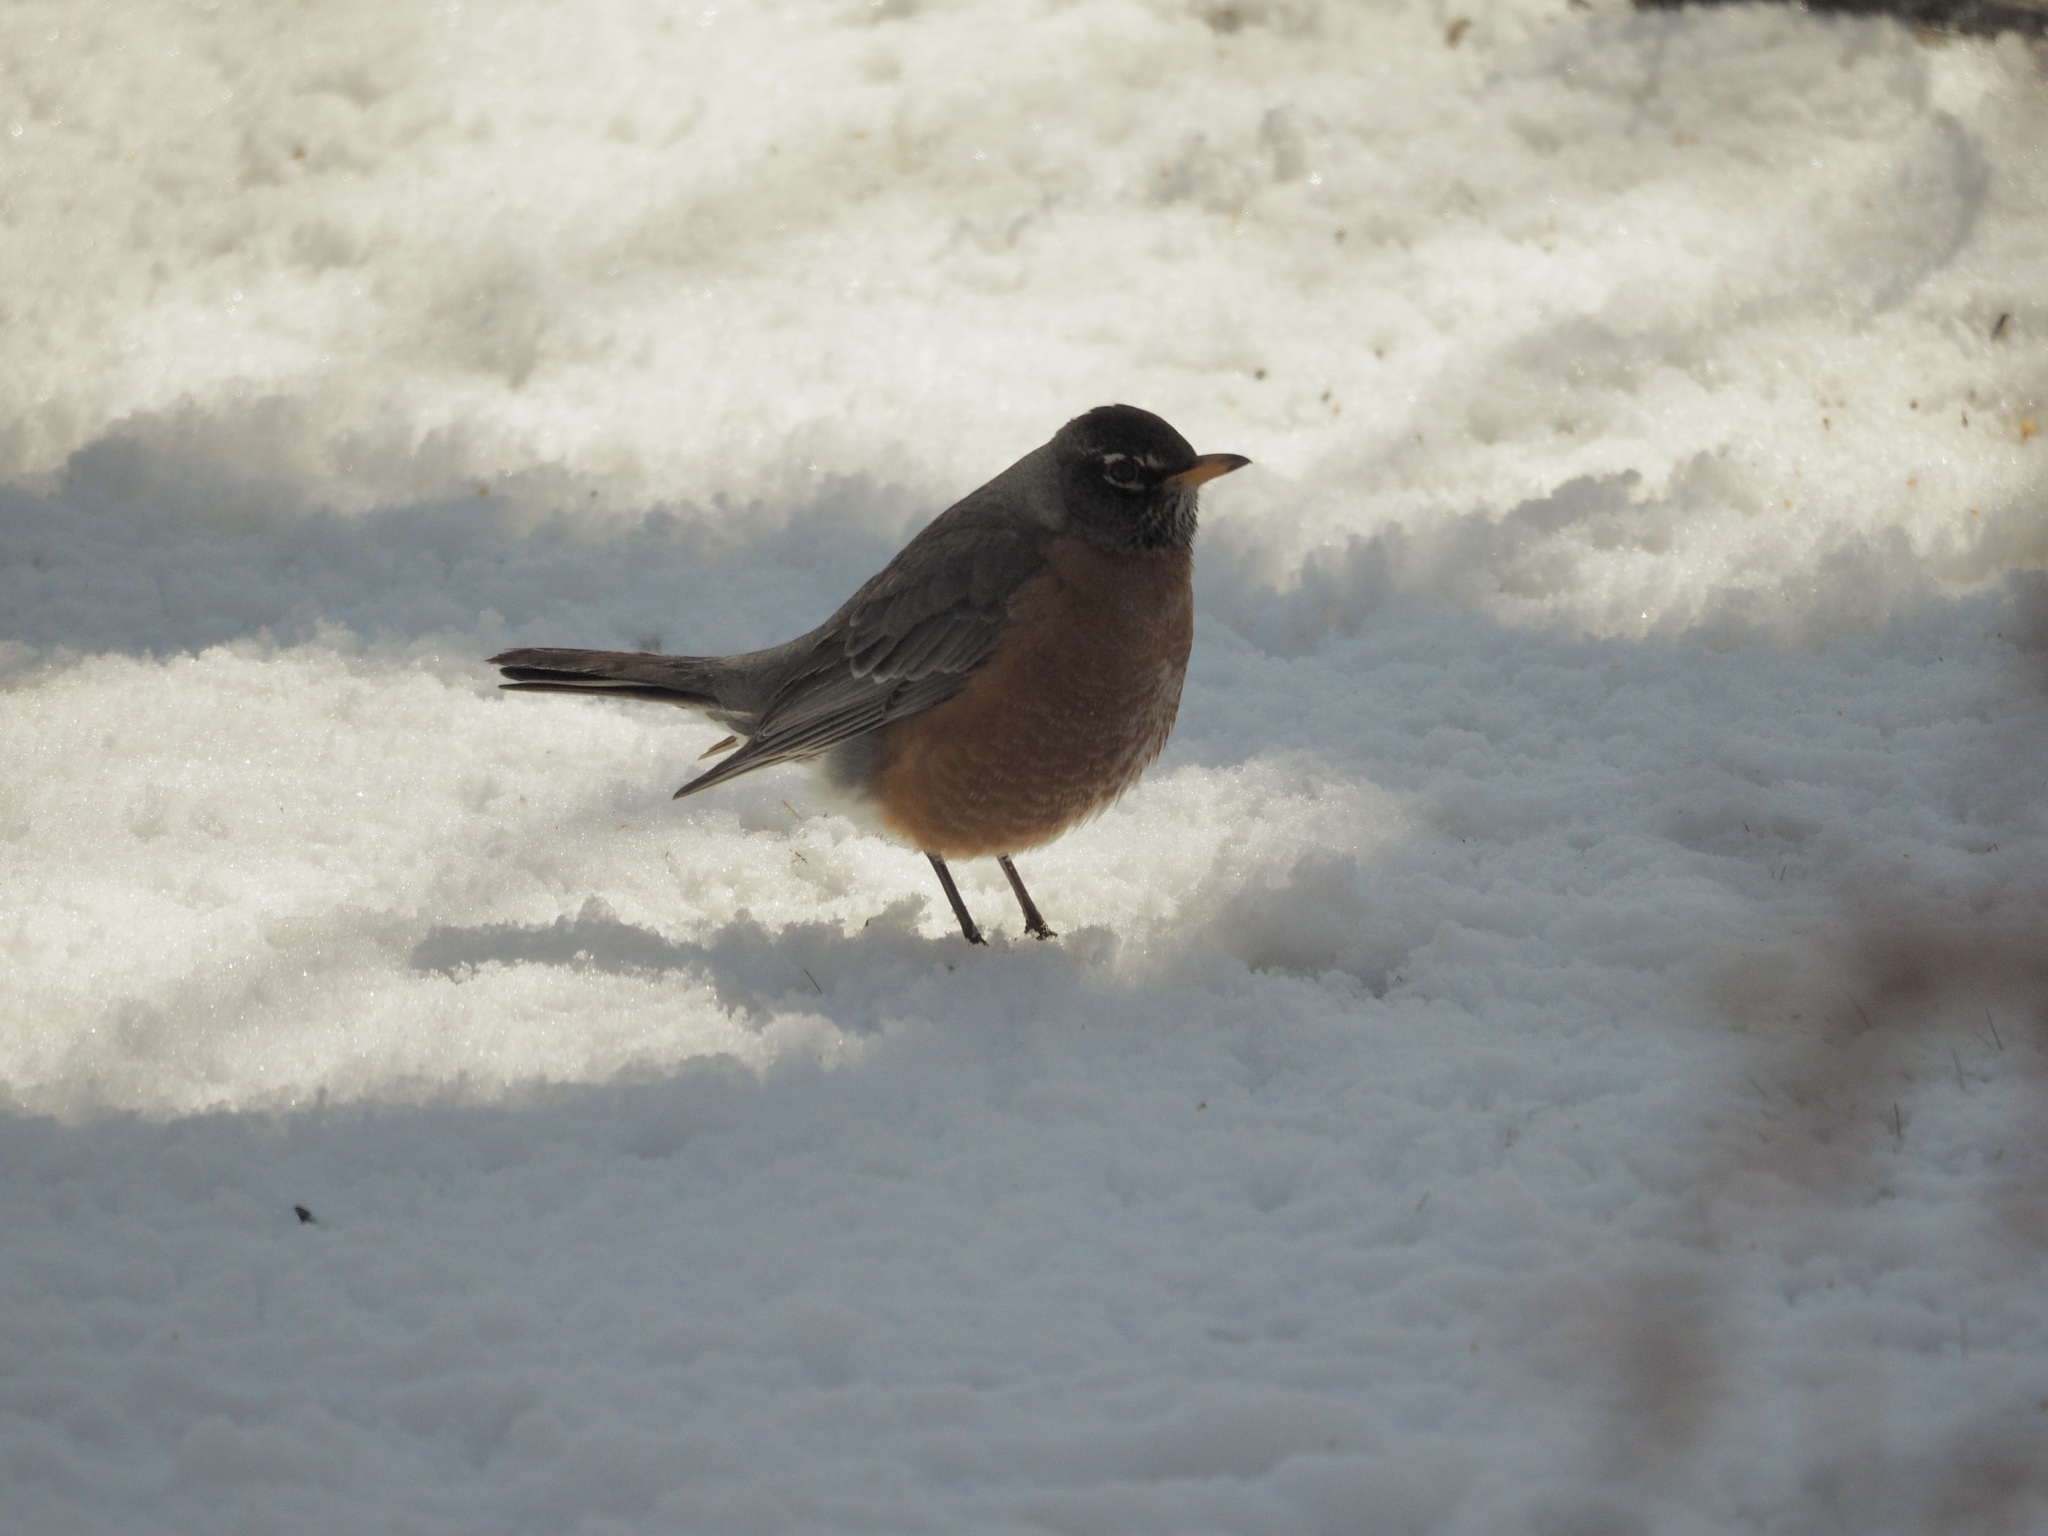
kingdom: Animalia
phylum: Chordata
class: Aves
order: Passeriformes
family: Turdidae
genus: Turdus
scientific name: Turdus migratorius
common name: American robin
